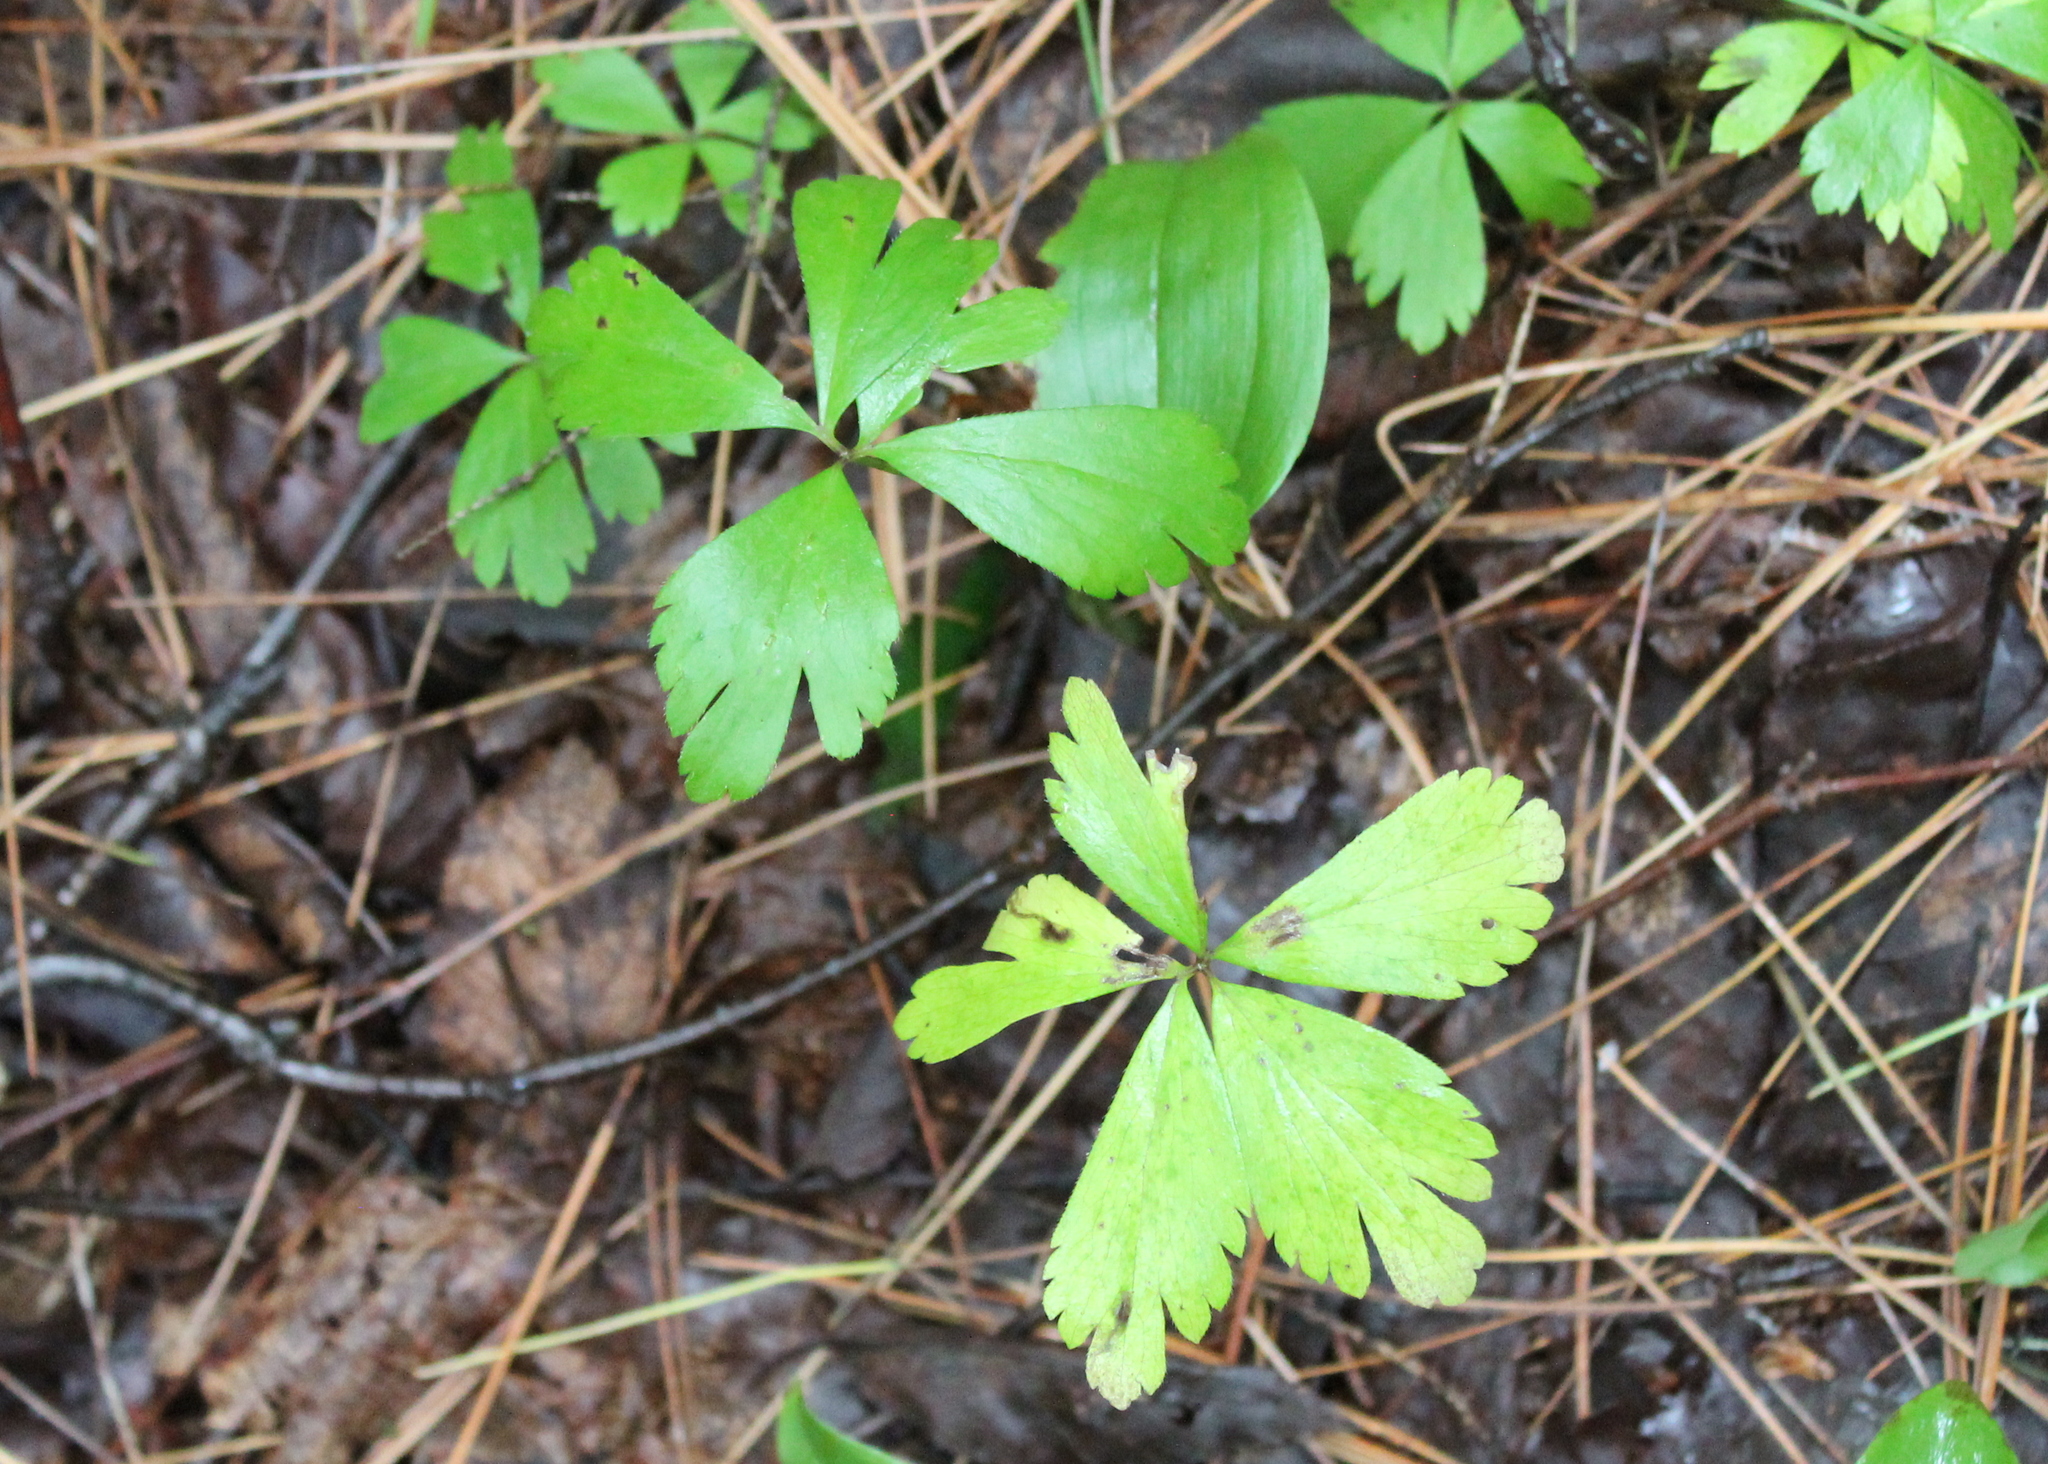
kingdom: Plantae
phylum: Tracheophyta
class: Magnoliopsida
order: Ranunculales
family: Ranunculaceae
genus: Anemone
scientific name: Anemone quinquefolia
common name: Wood anemone
